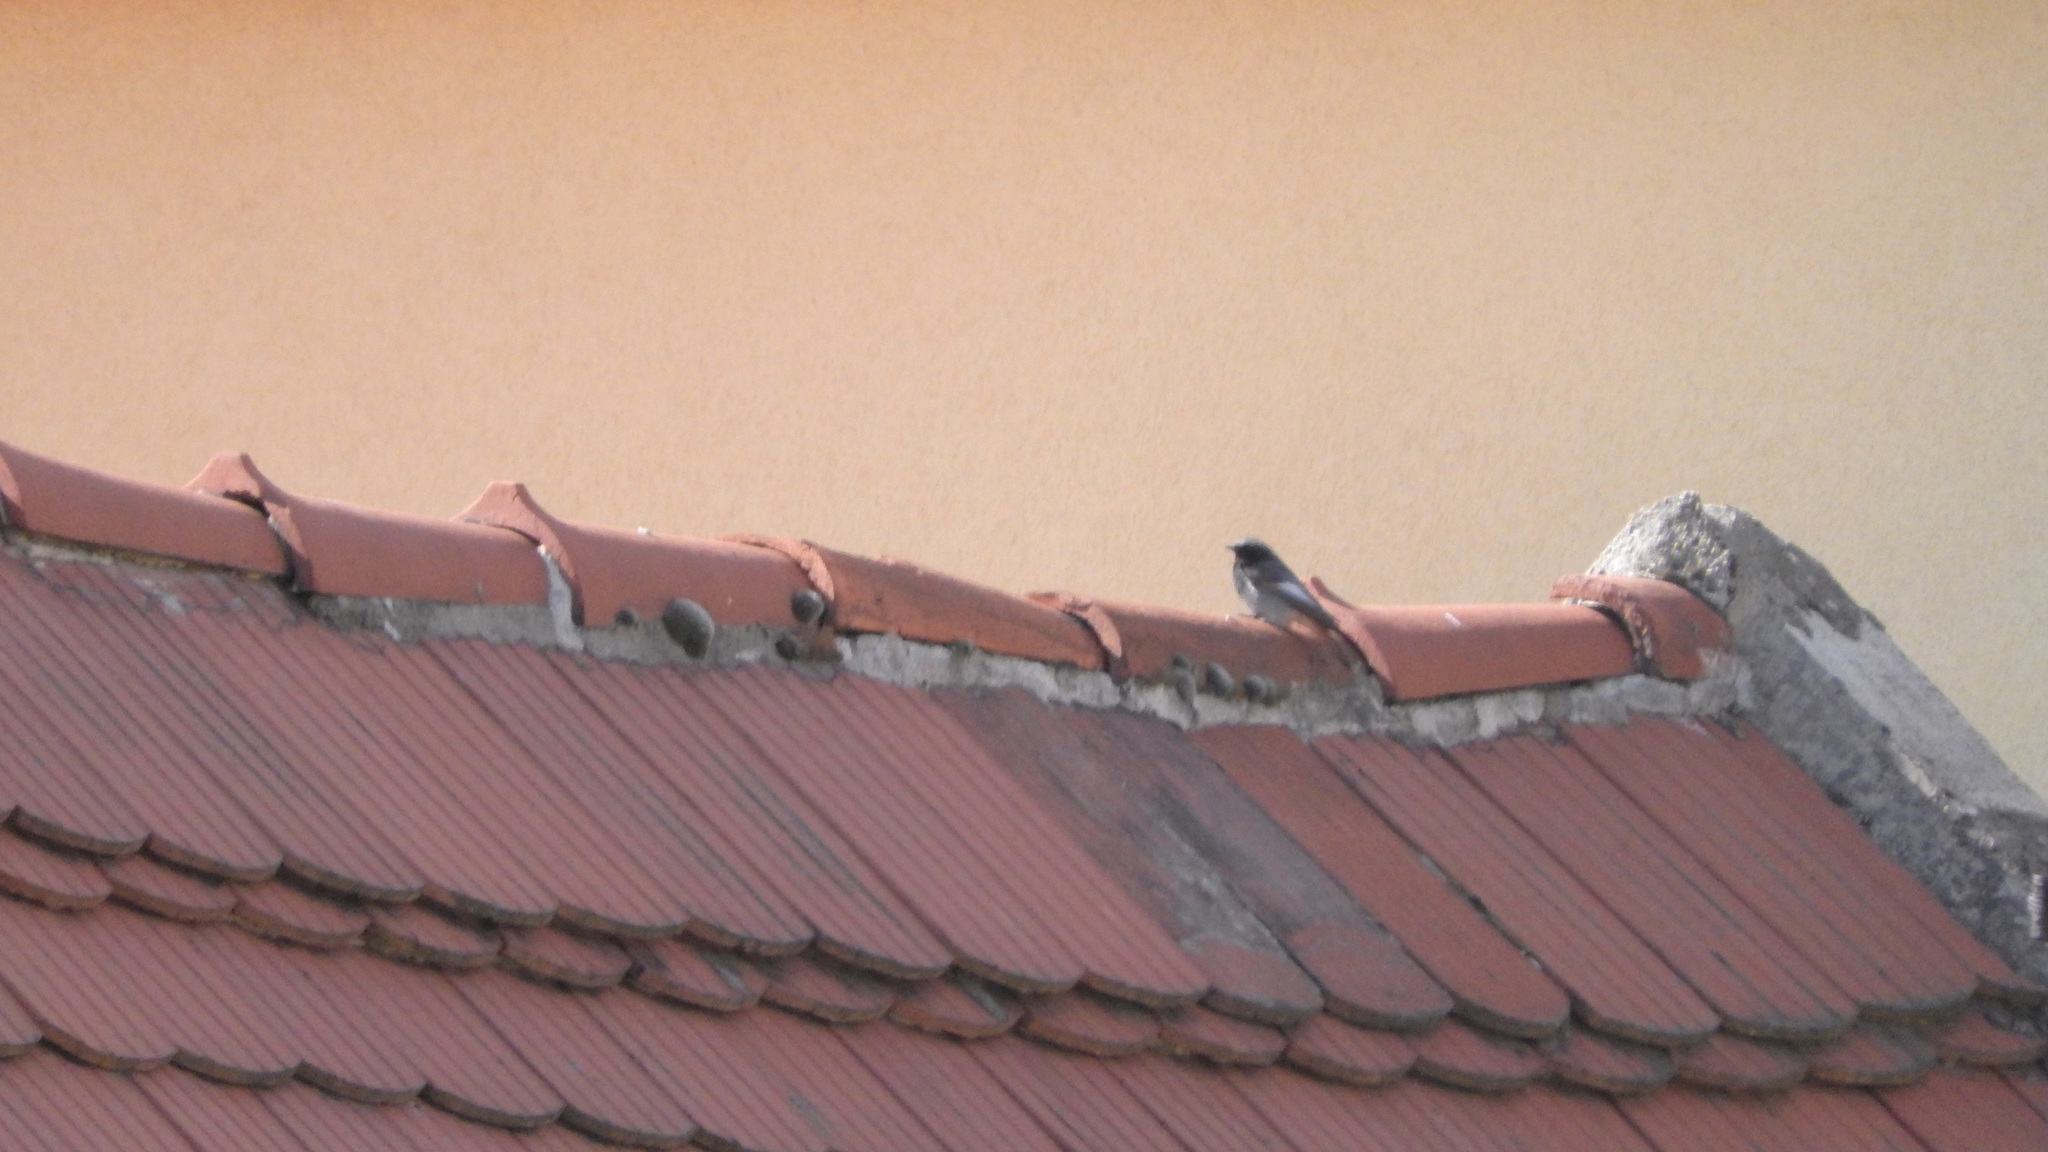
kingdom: Animalia
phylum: Chordata
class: Aves
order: Passeriformes
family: Muscicapidae
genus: Phoenicurus
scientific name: Phoenicurus ochruros
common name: Black redstart
